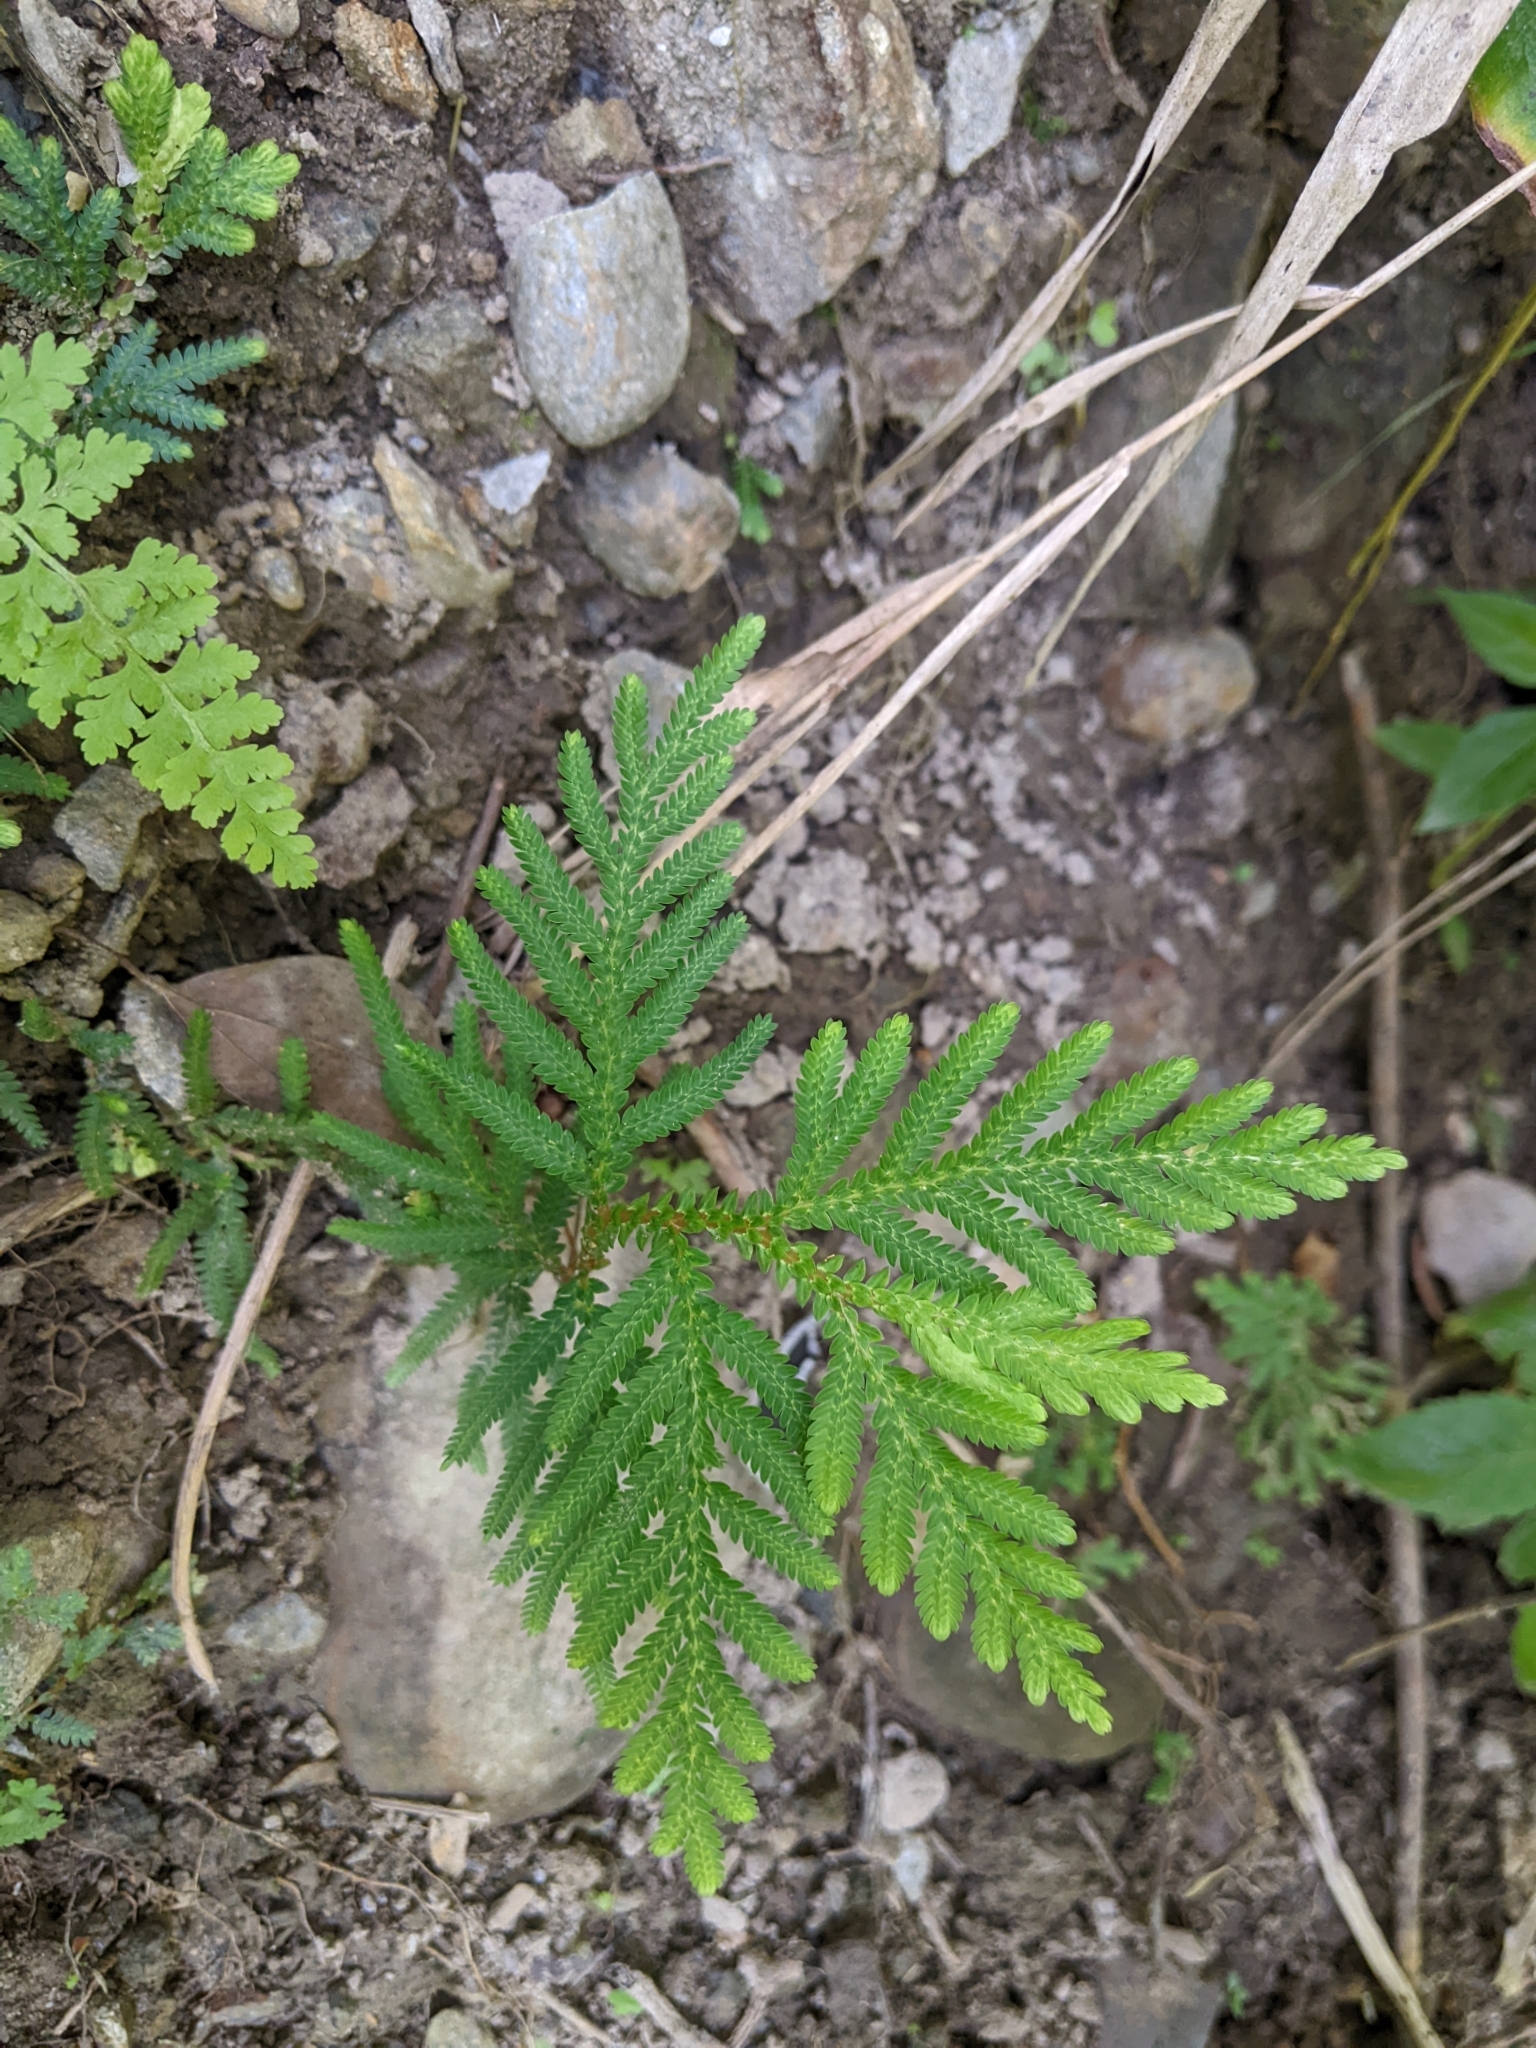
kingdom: Plantae
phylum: Tracheophyta
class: Lycopodiopsida
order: Selaginellales
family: Selaginellaceae
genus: Selaginella
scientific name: Selaginella delicatula
